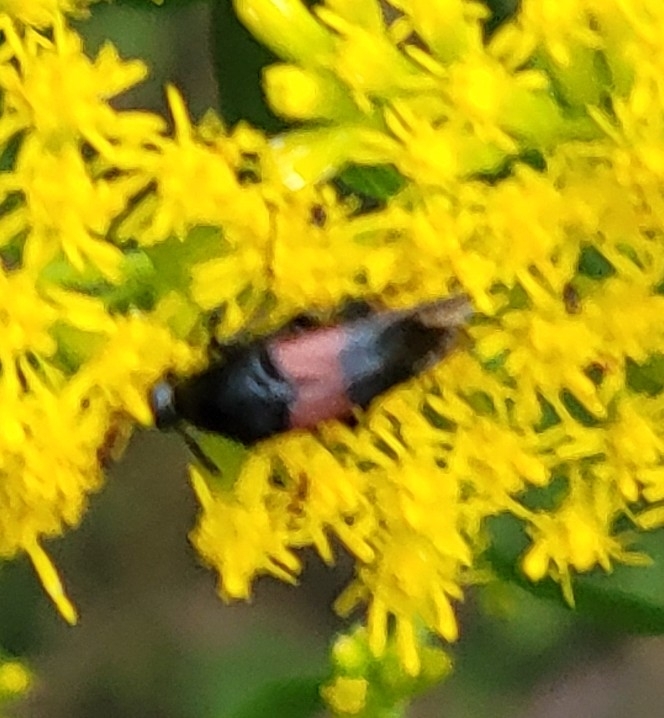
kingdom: Animalia
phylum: Arthropoda
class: Insecta
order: Coleoptera
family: Ripiphoridae
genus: Macrosiagon
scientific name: Macrosiagon cruentum
